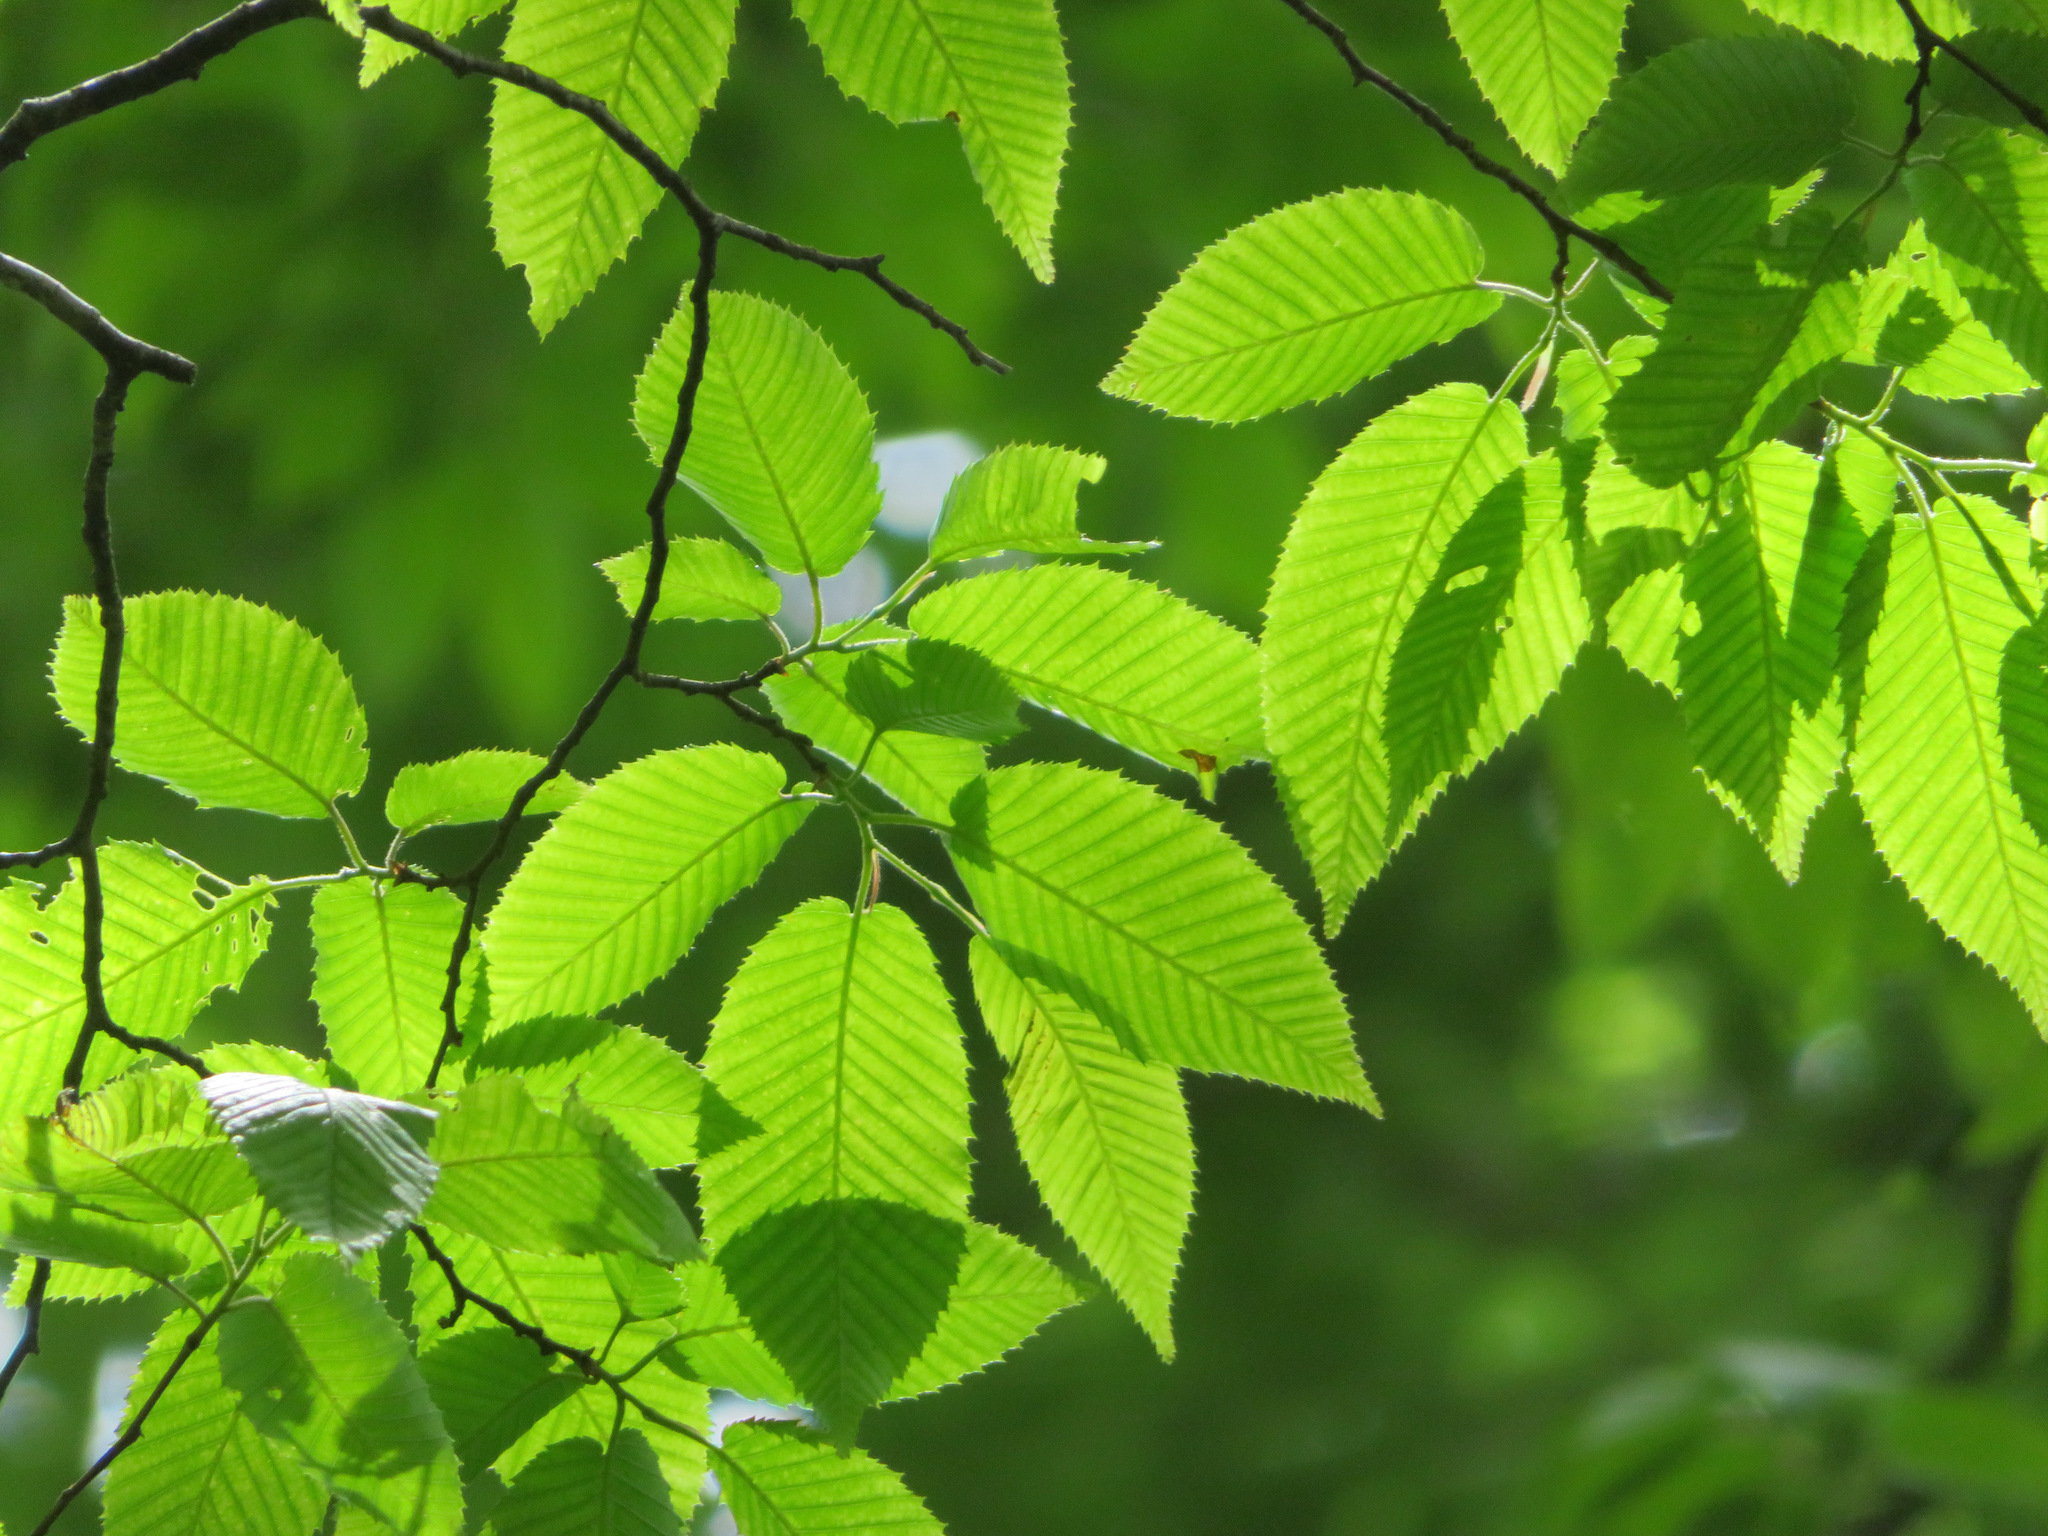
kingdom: Plantae
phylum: Tracheophyta
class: Magnoliopsida
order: Fagales
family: Betulaceae
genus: Carpinus
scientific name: Carpinus cordata
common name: Sawa hornbeam
